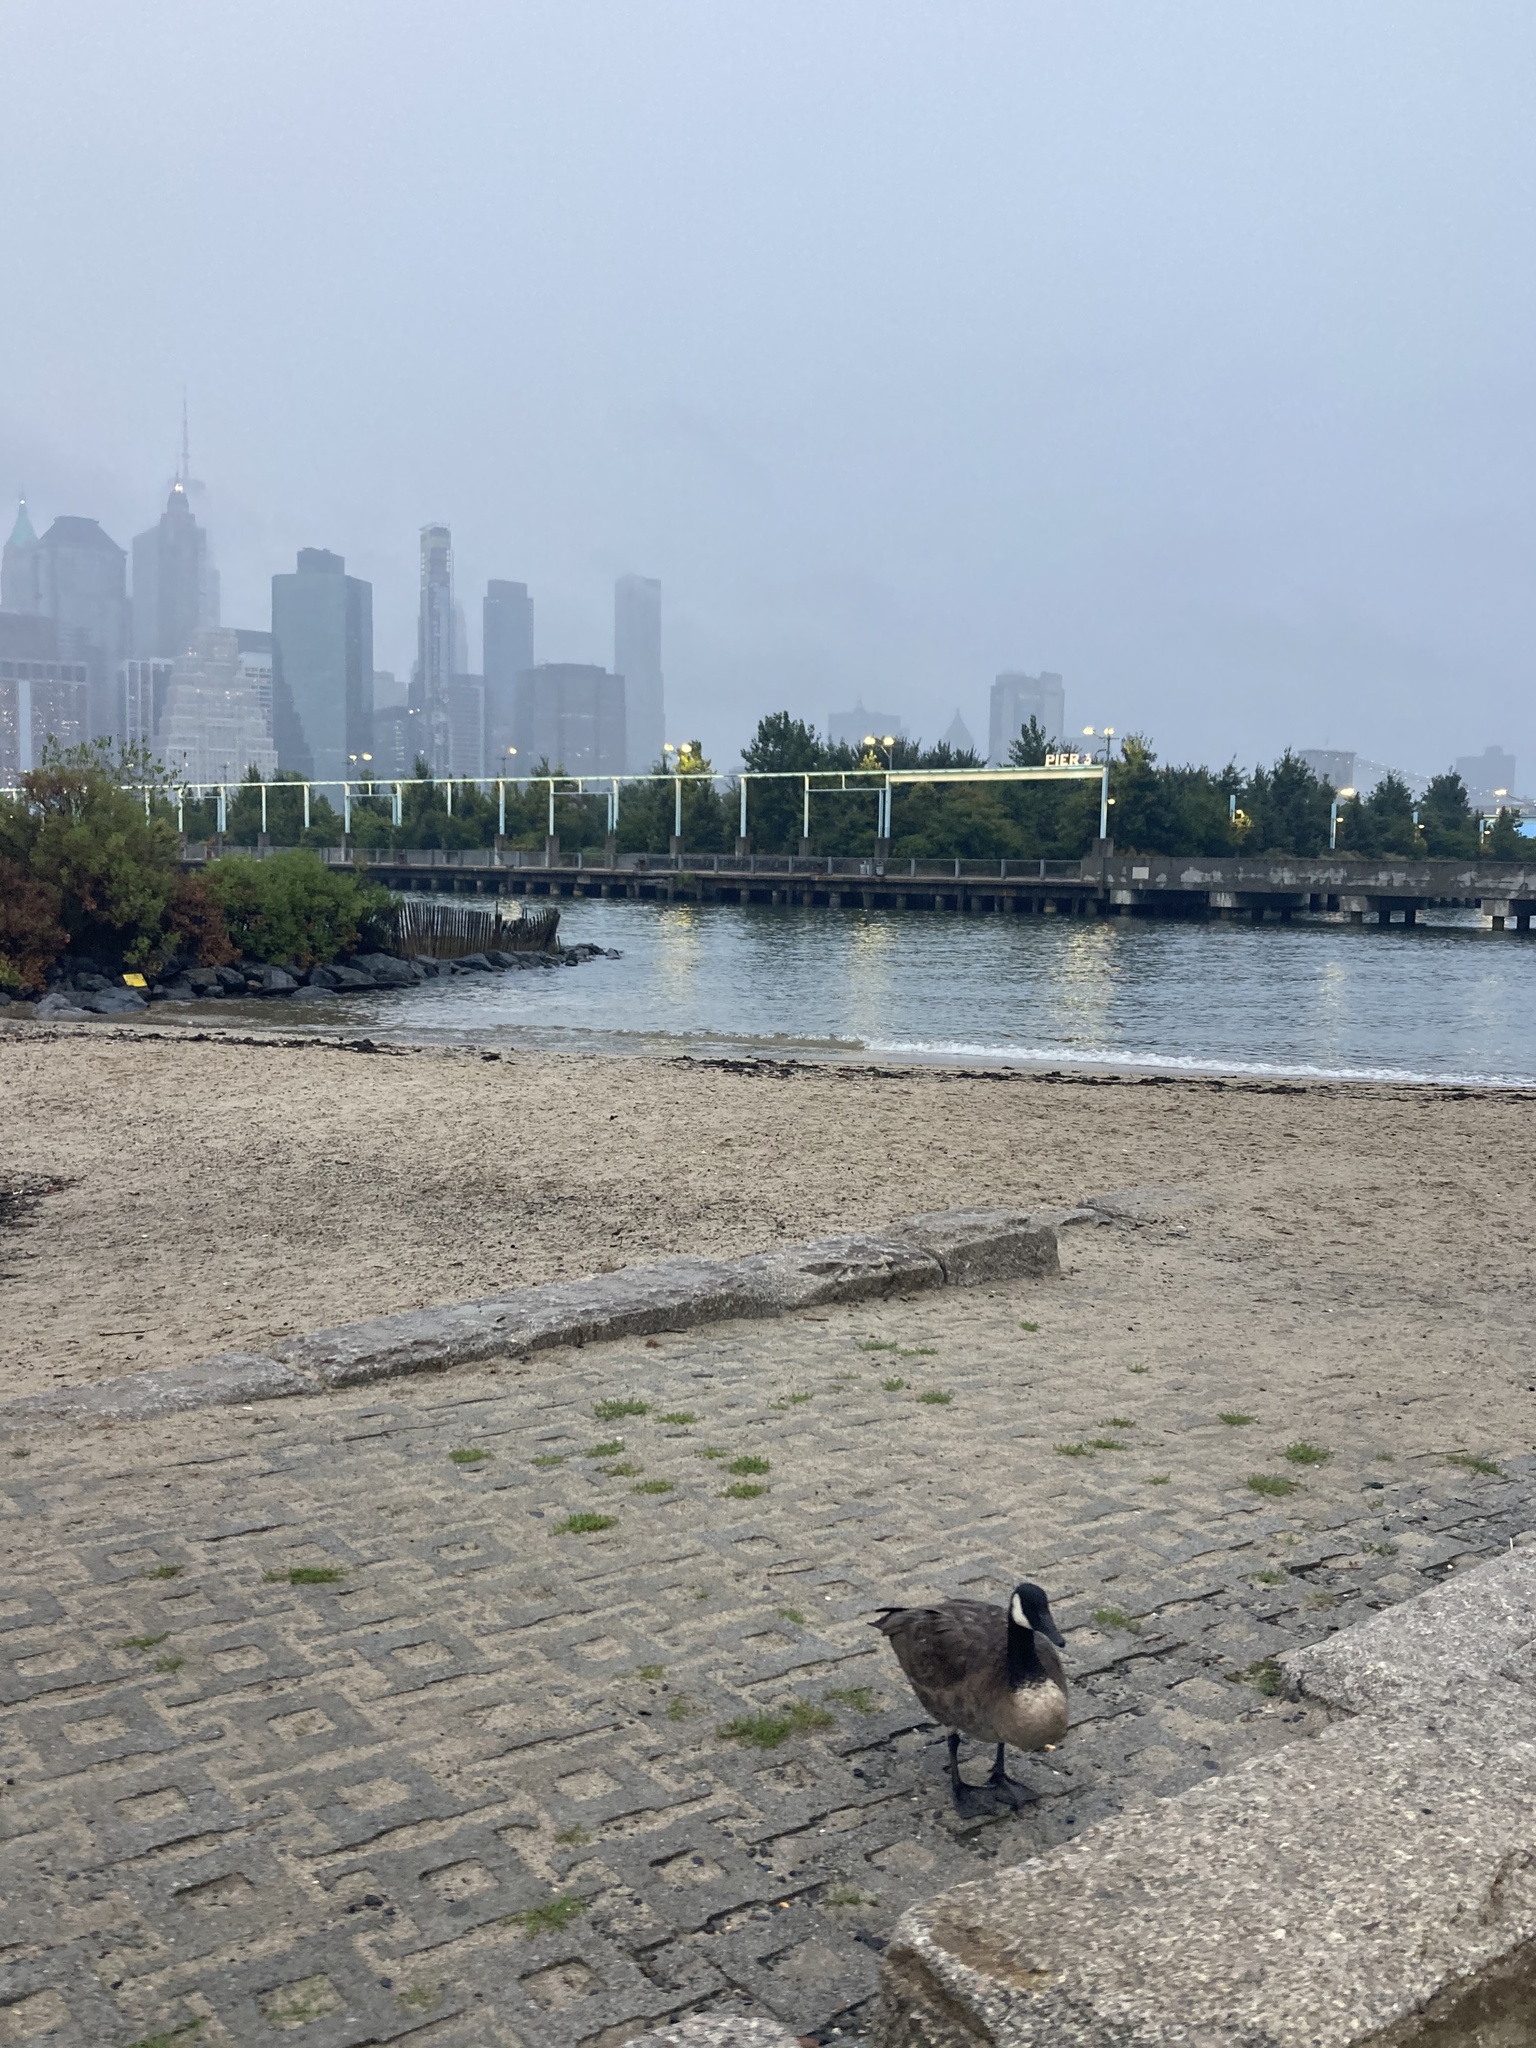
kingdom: Animalia
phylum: Chordata
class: Aves
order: Anseriformes
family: Anatidae
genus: Branta
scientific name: Branta canadensis
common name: Canada goose
